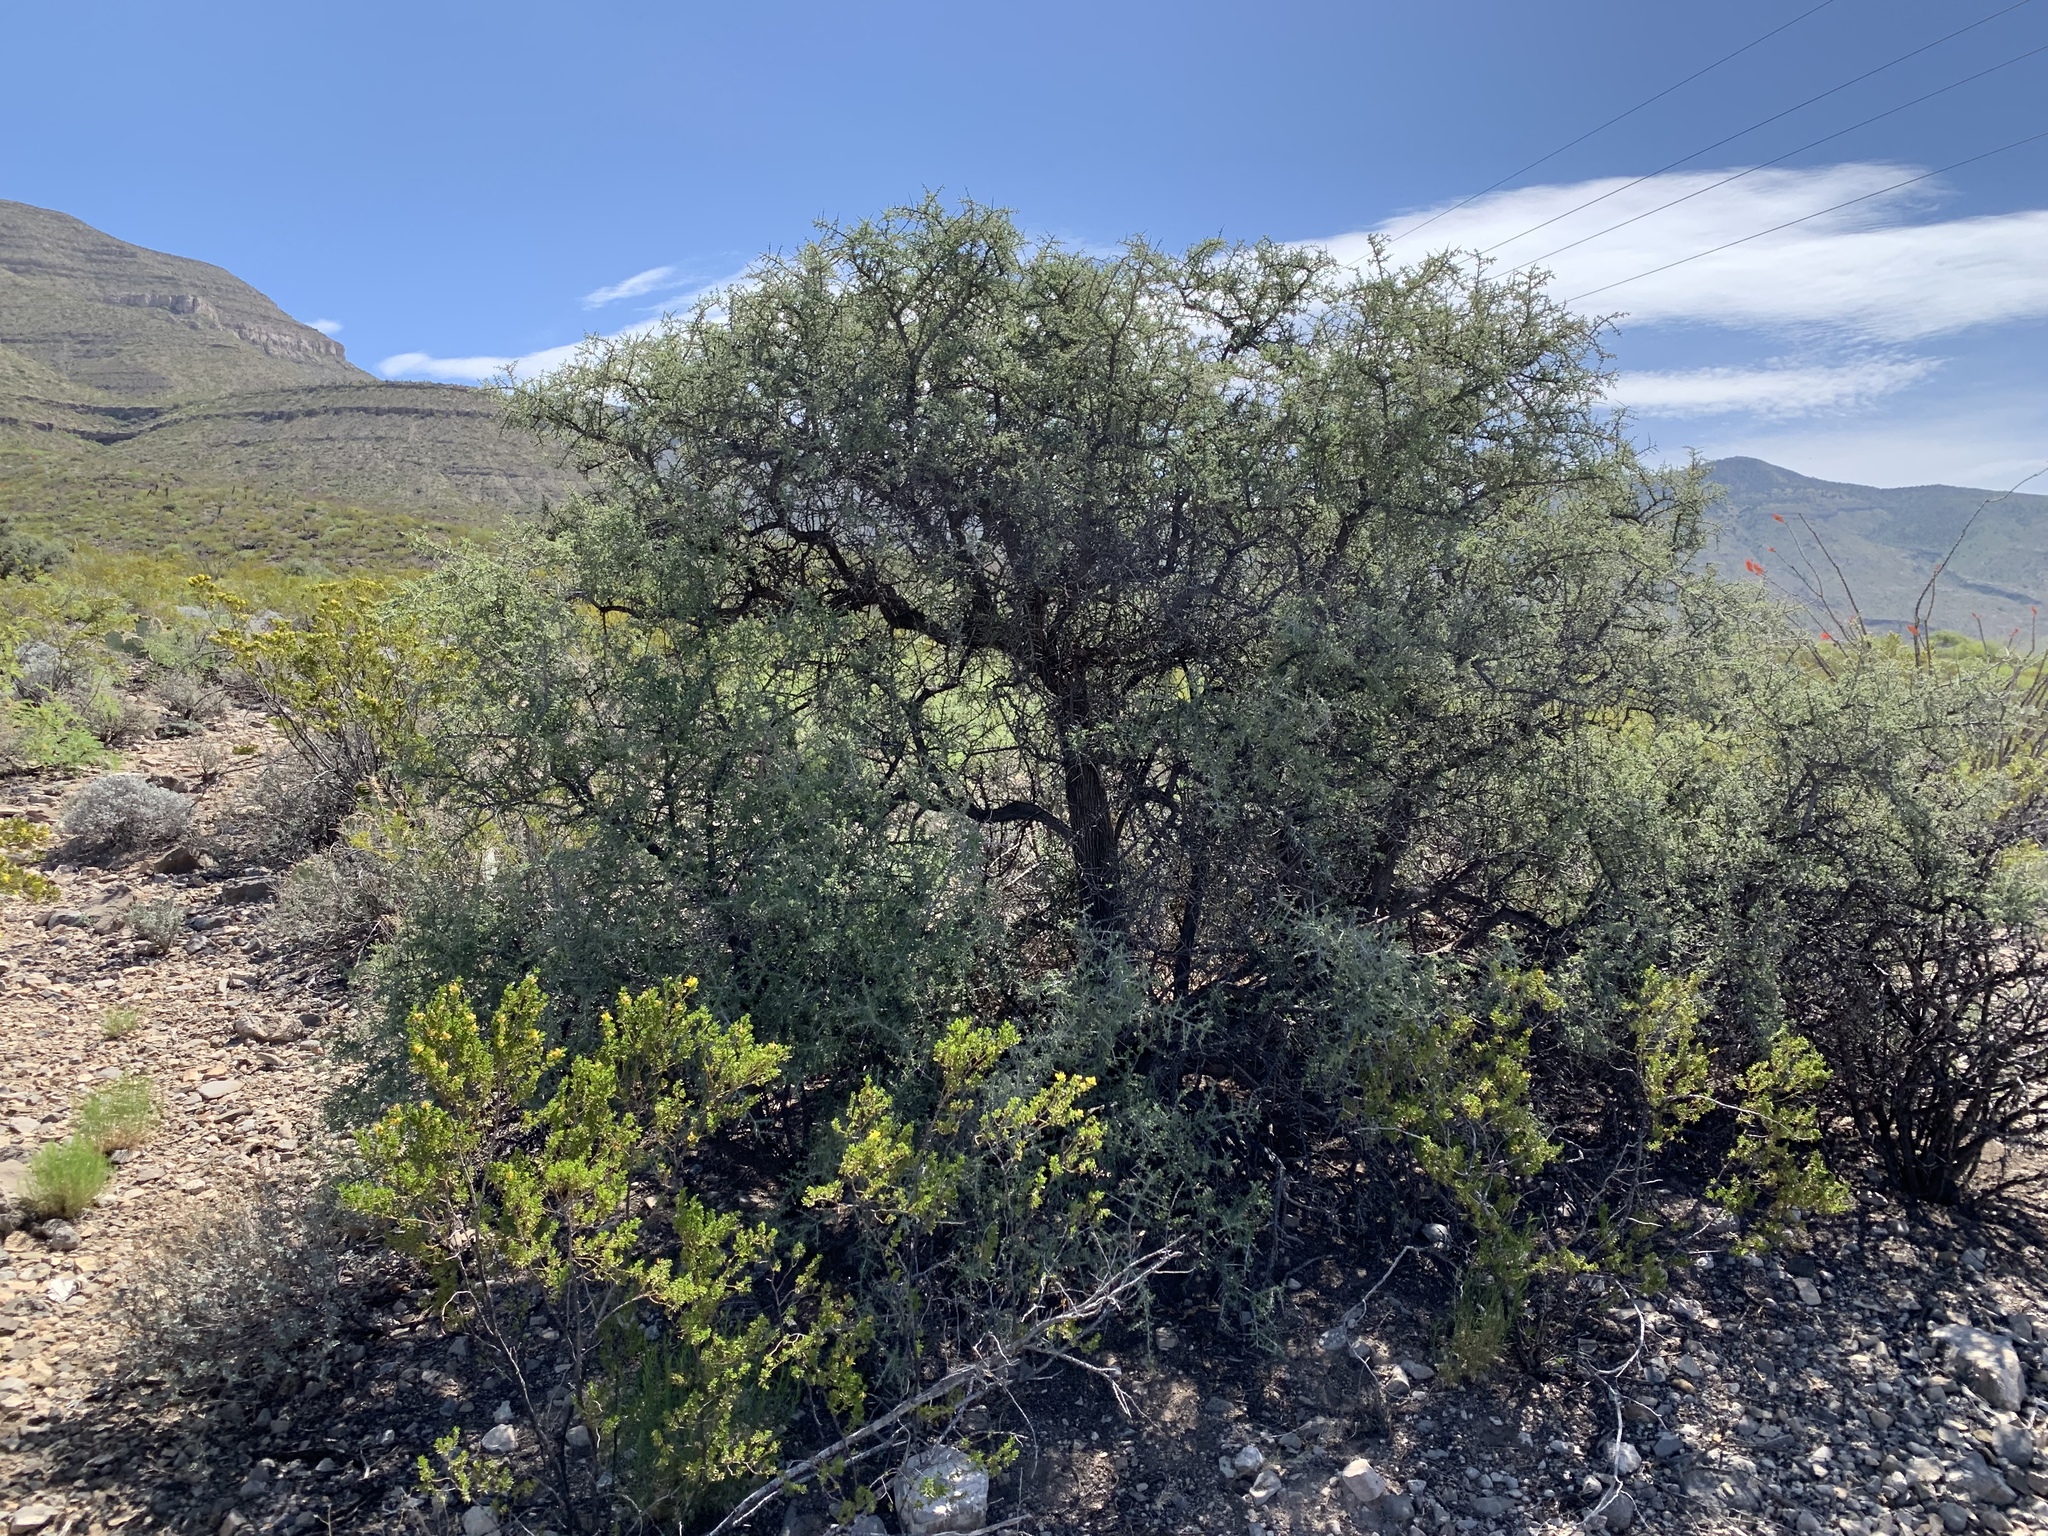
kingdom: Plantae
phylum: Tracheophyta
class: Magnoliopsida
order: Rosales
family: Rhamnaceae
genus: Condalia
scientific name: Condalia warnockii
